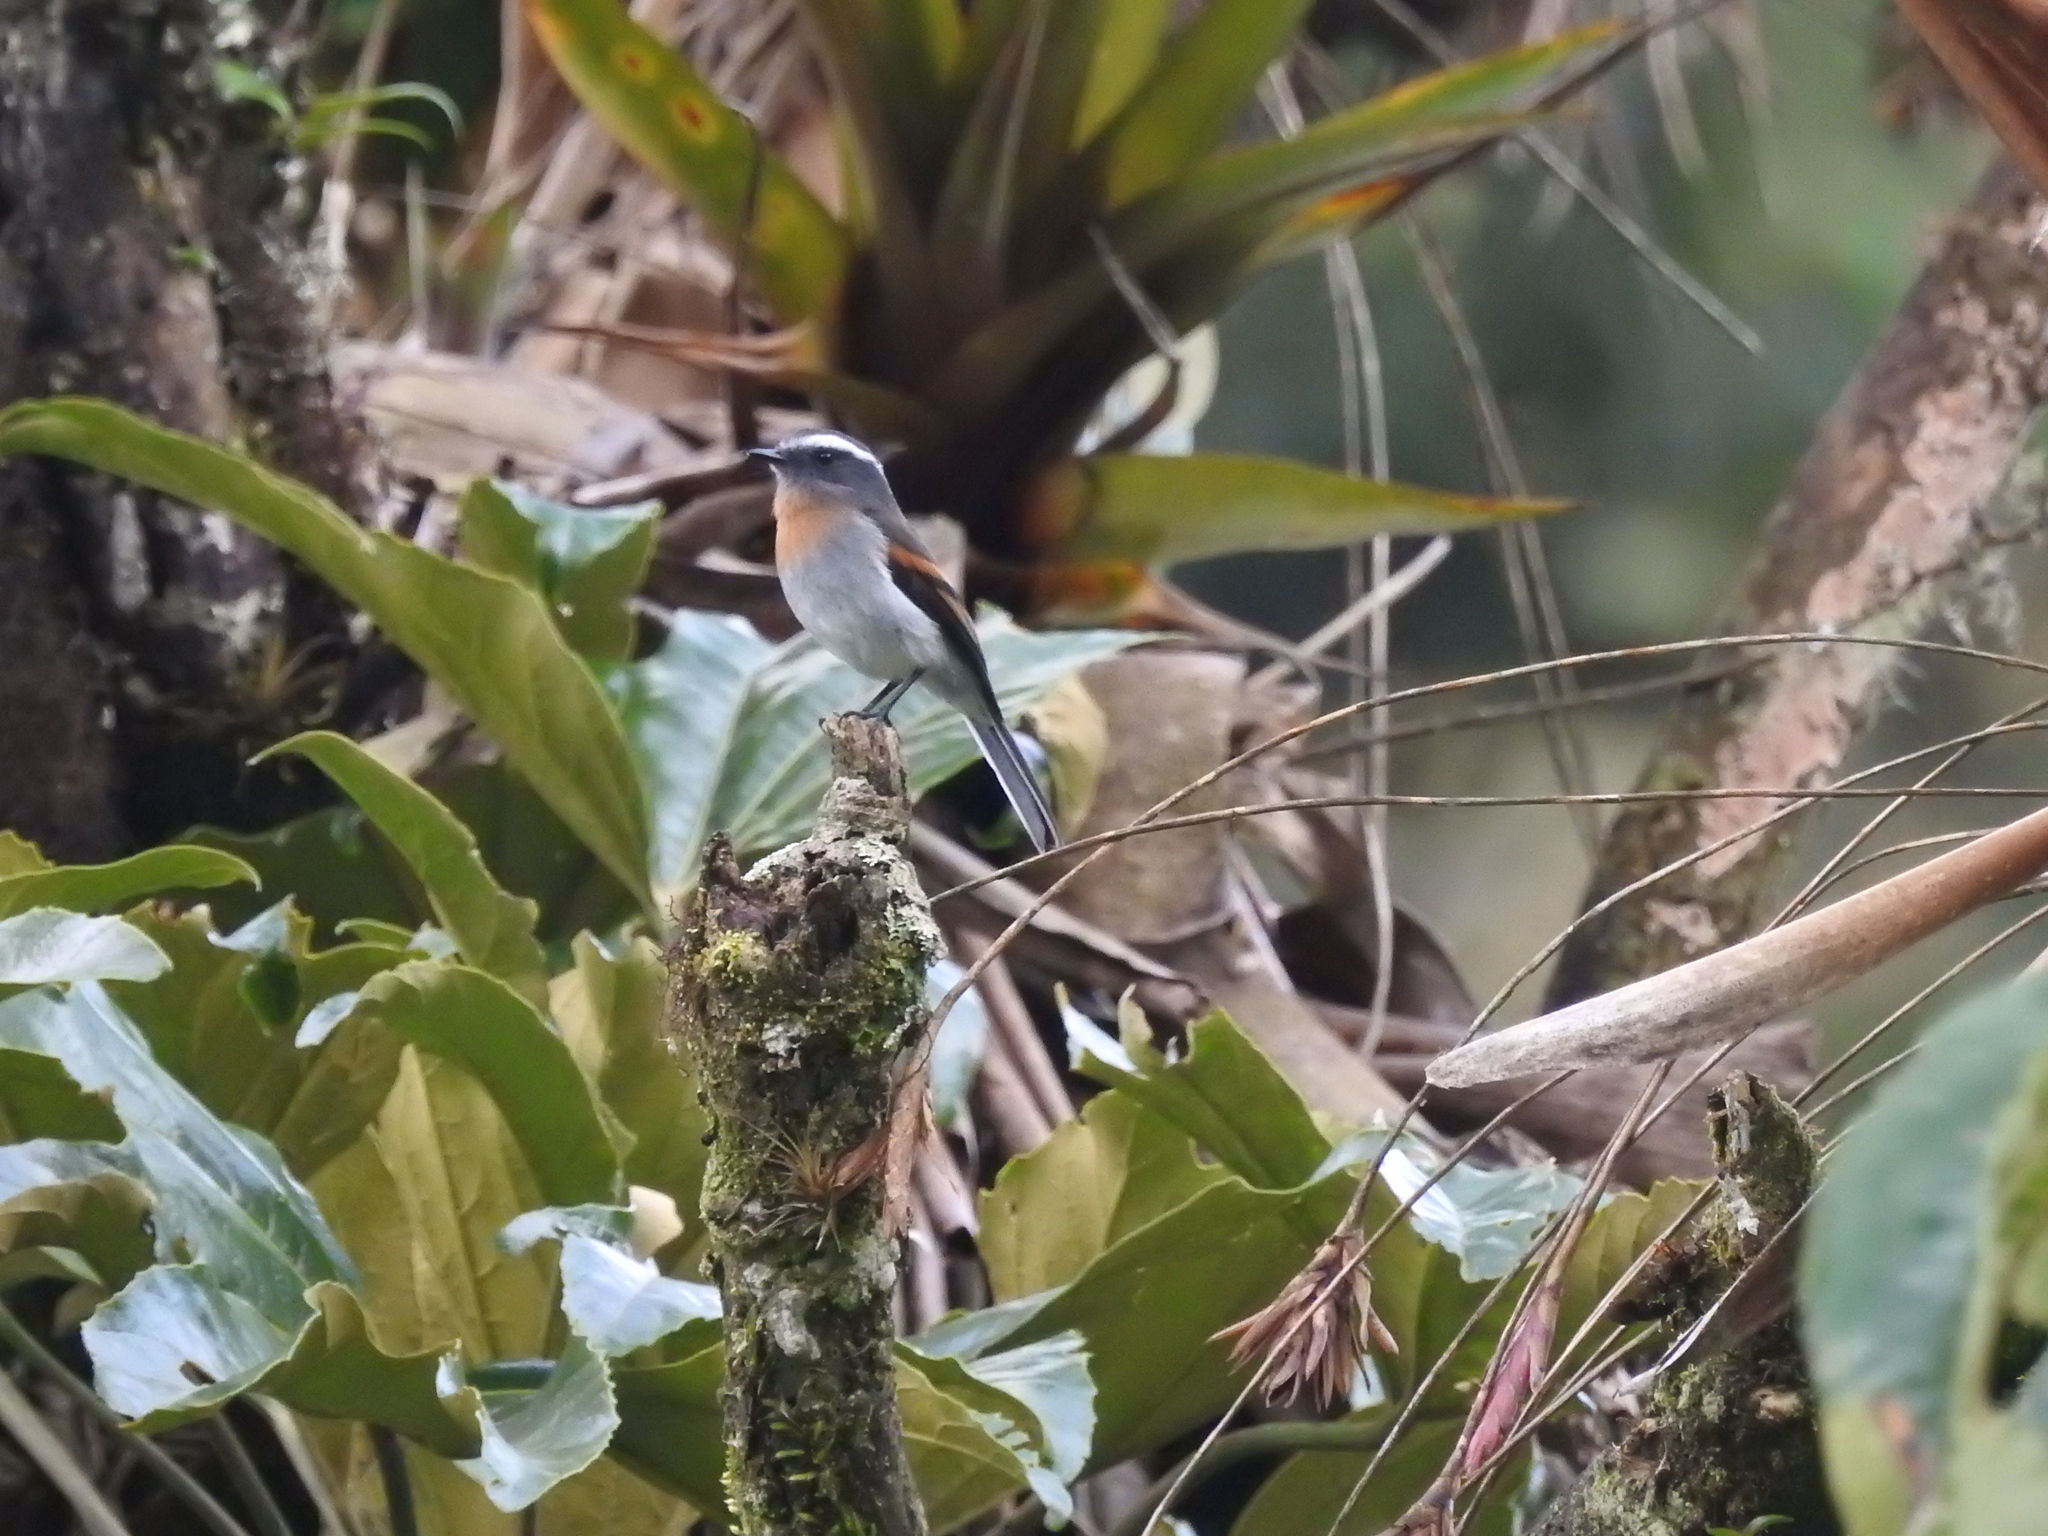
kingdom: Animalia
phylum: Chordata
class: Aves
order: Passeriformes
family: Tyrannidae
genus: Ochthoeca
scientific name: Ochthoeca rufipectoralis
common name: Rufous-breasted chat-tyrant
